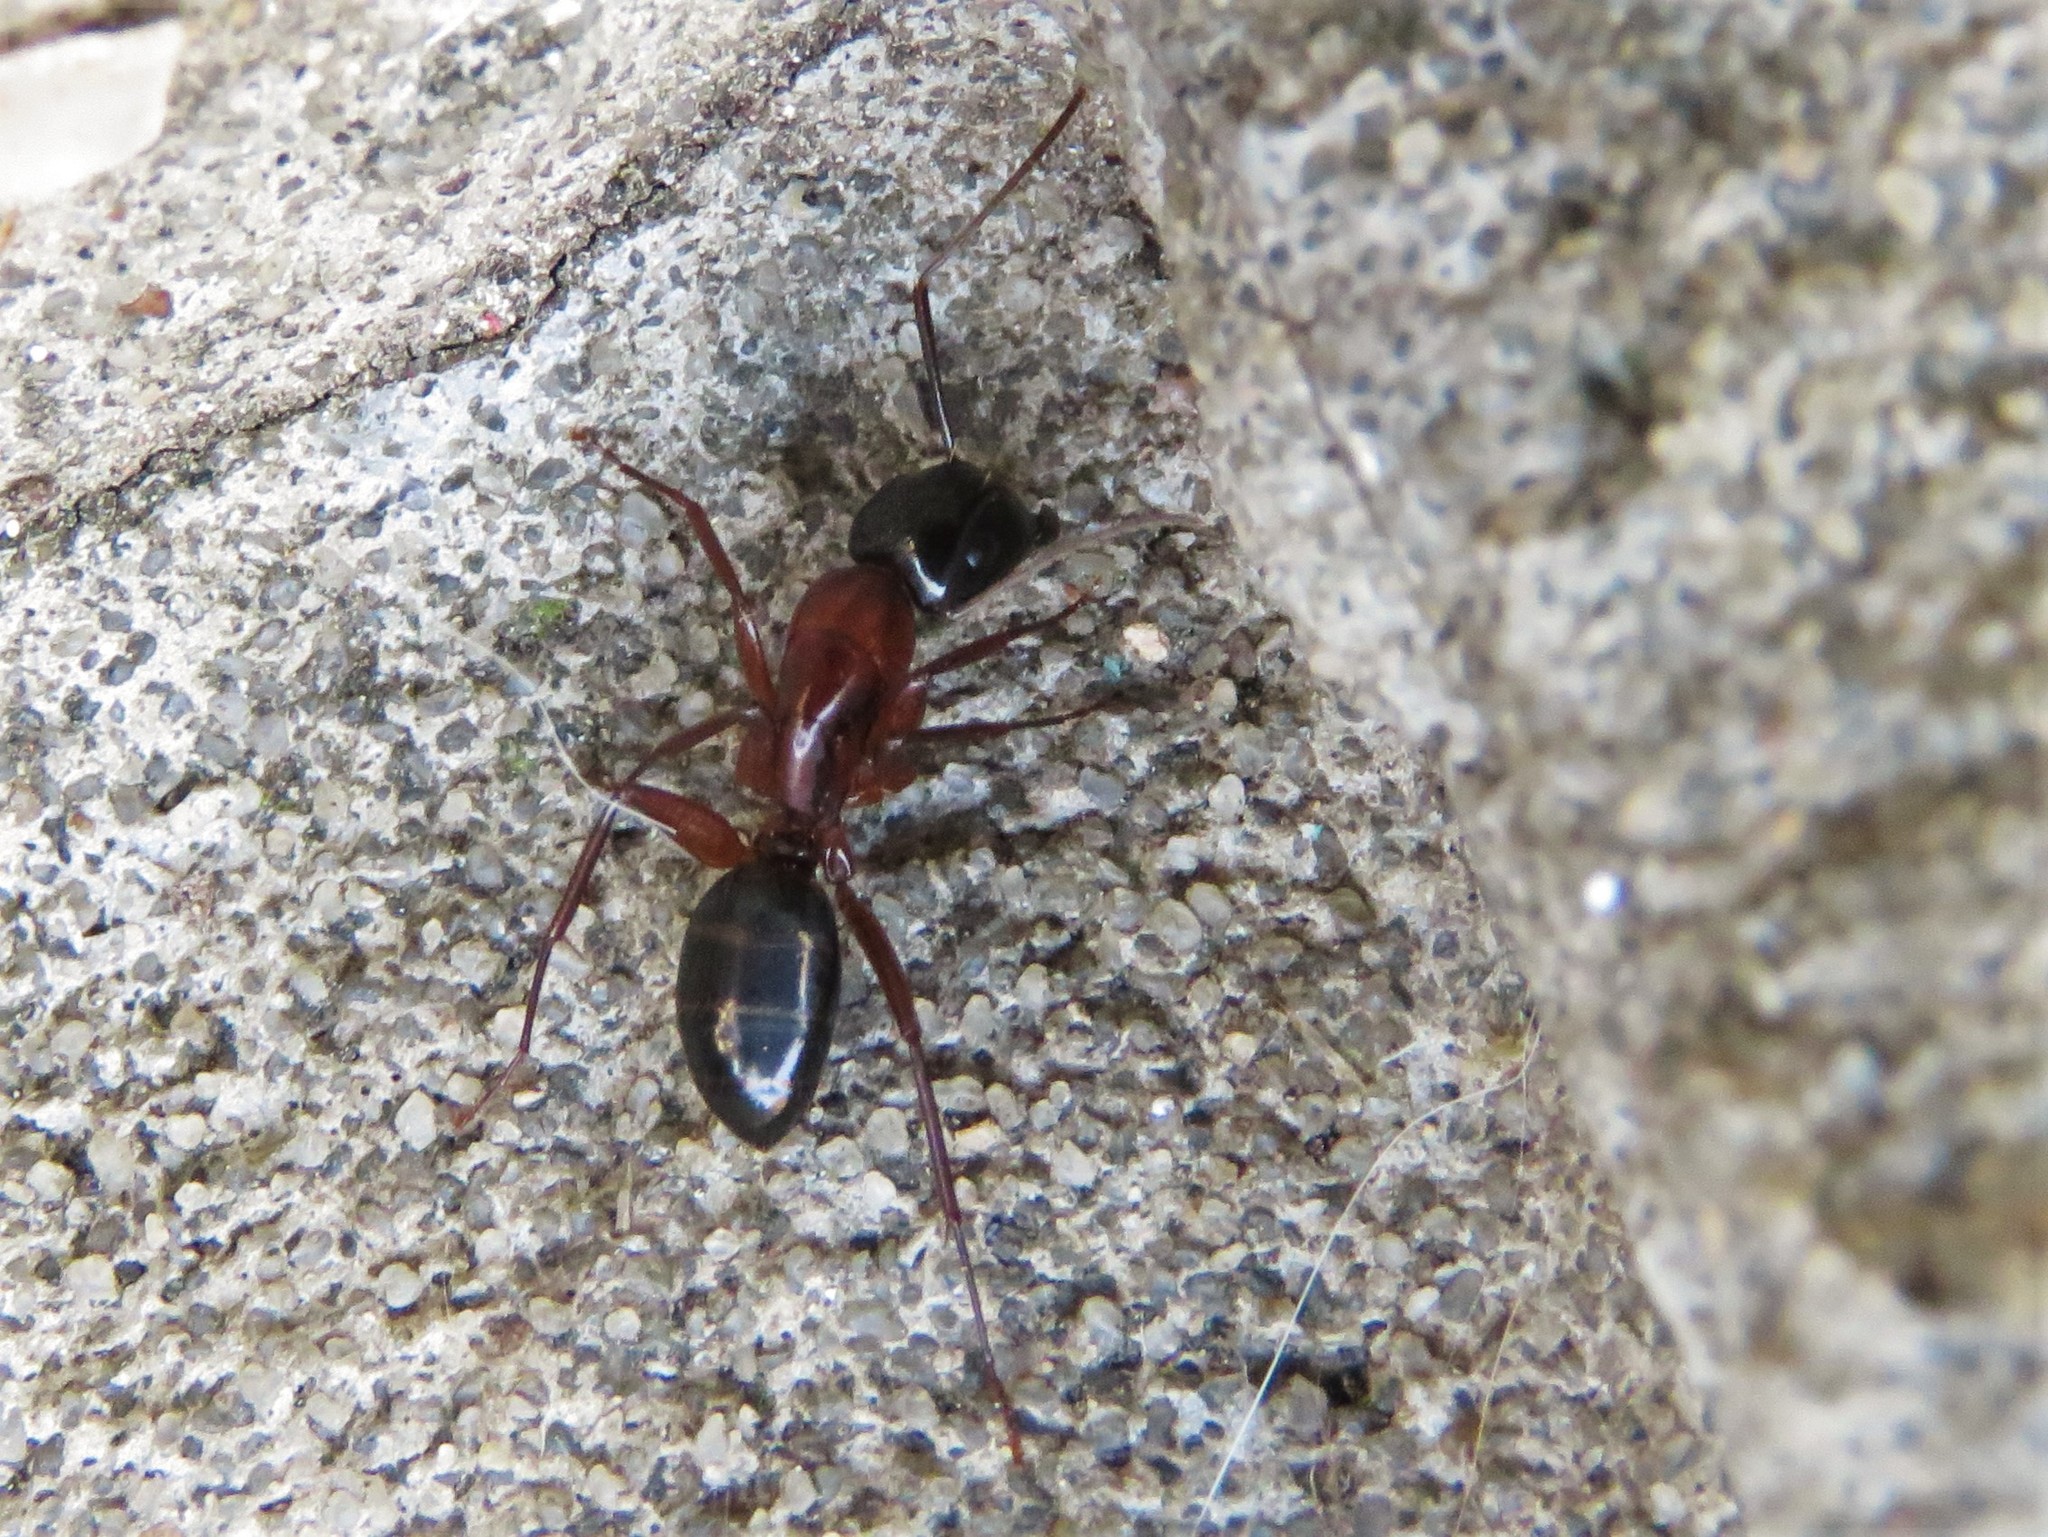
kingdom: Animalia
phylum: Arthropoda
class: Insecta
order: Hymenoptera
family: Formicidae
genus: Camponotus
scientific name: Camponotus texanus
